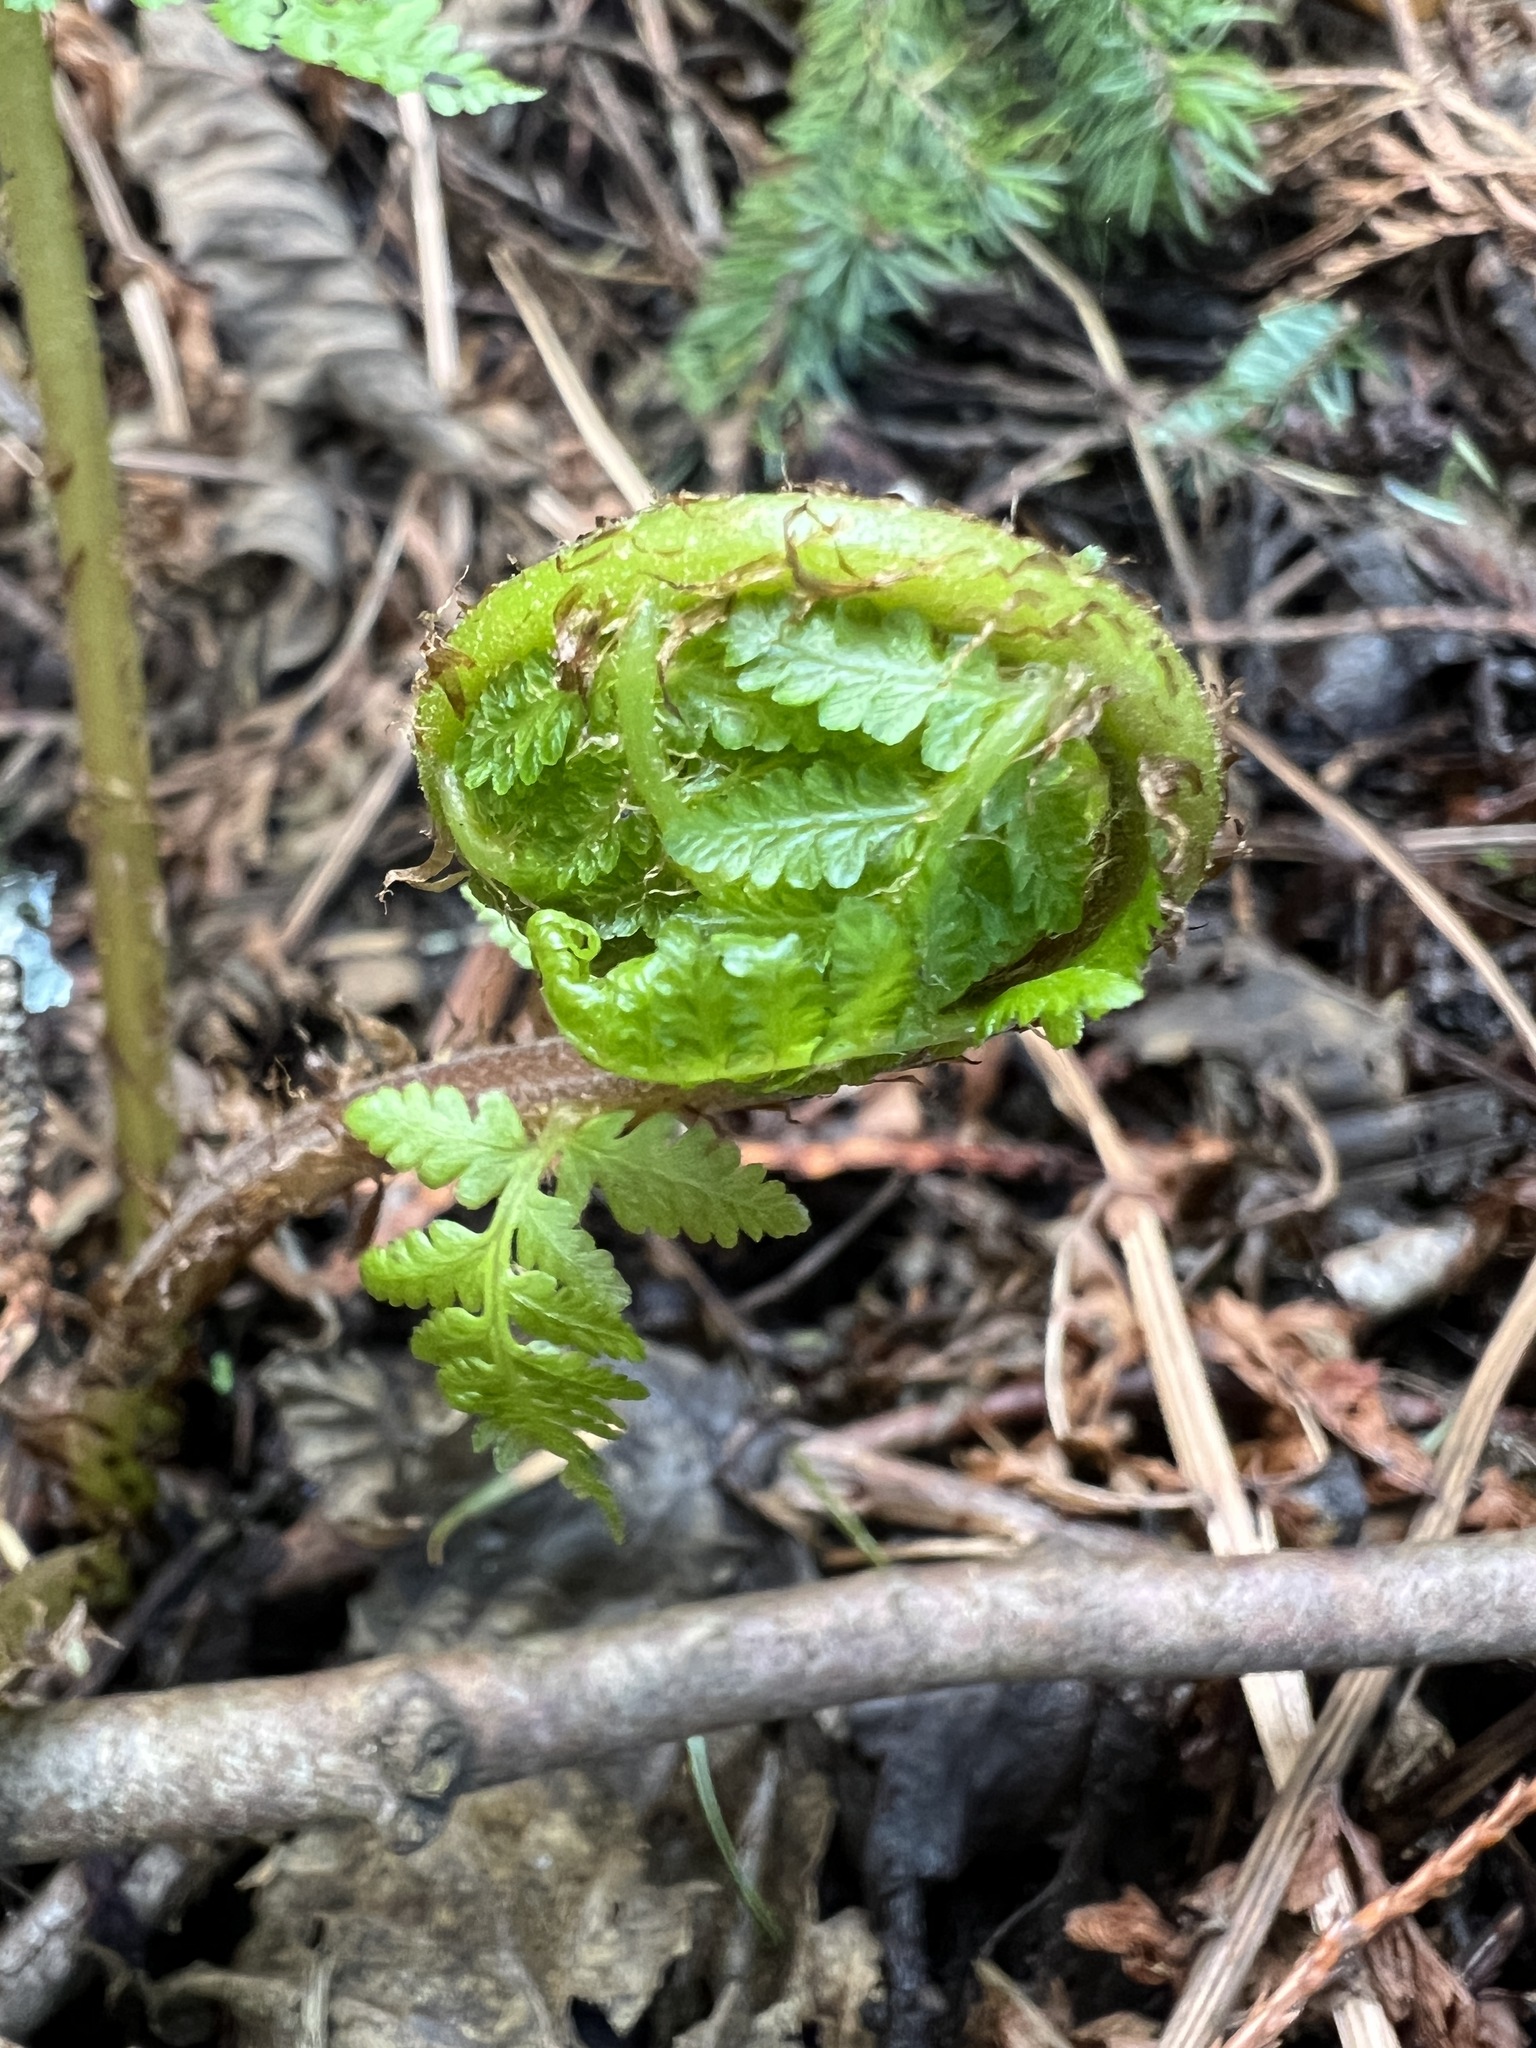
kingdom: Plantae
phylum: Tracheophyta
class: Polypodiopsida
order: Polypodiales
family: Athyriaceae
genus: Athyrium
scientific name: Athyrium filix-femina
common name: Lady fern
